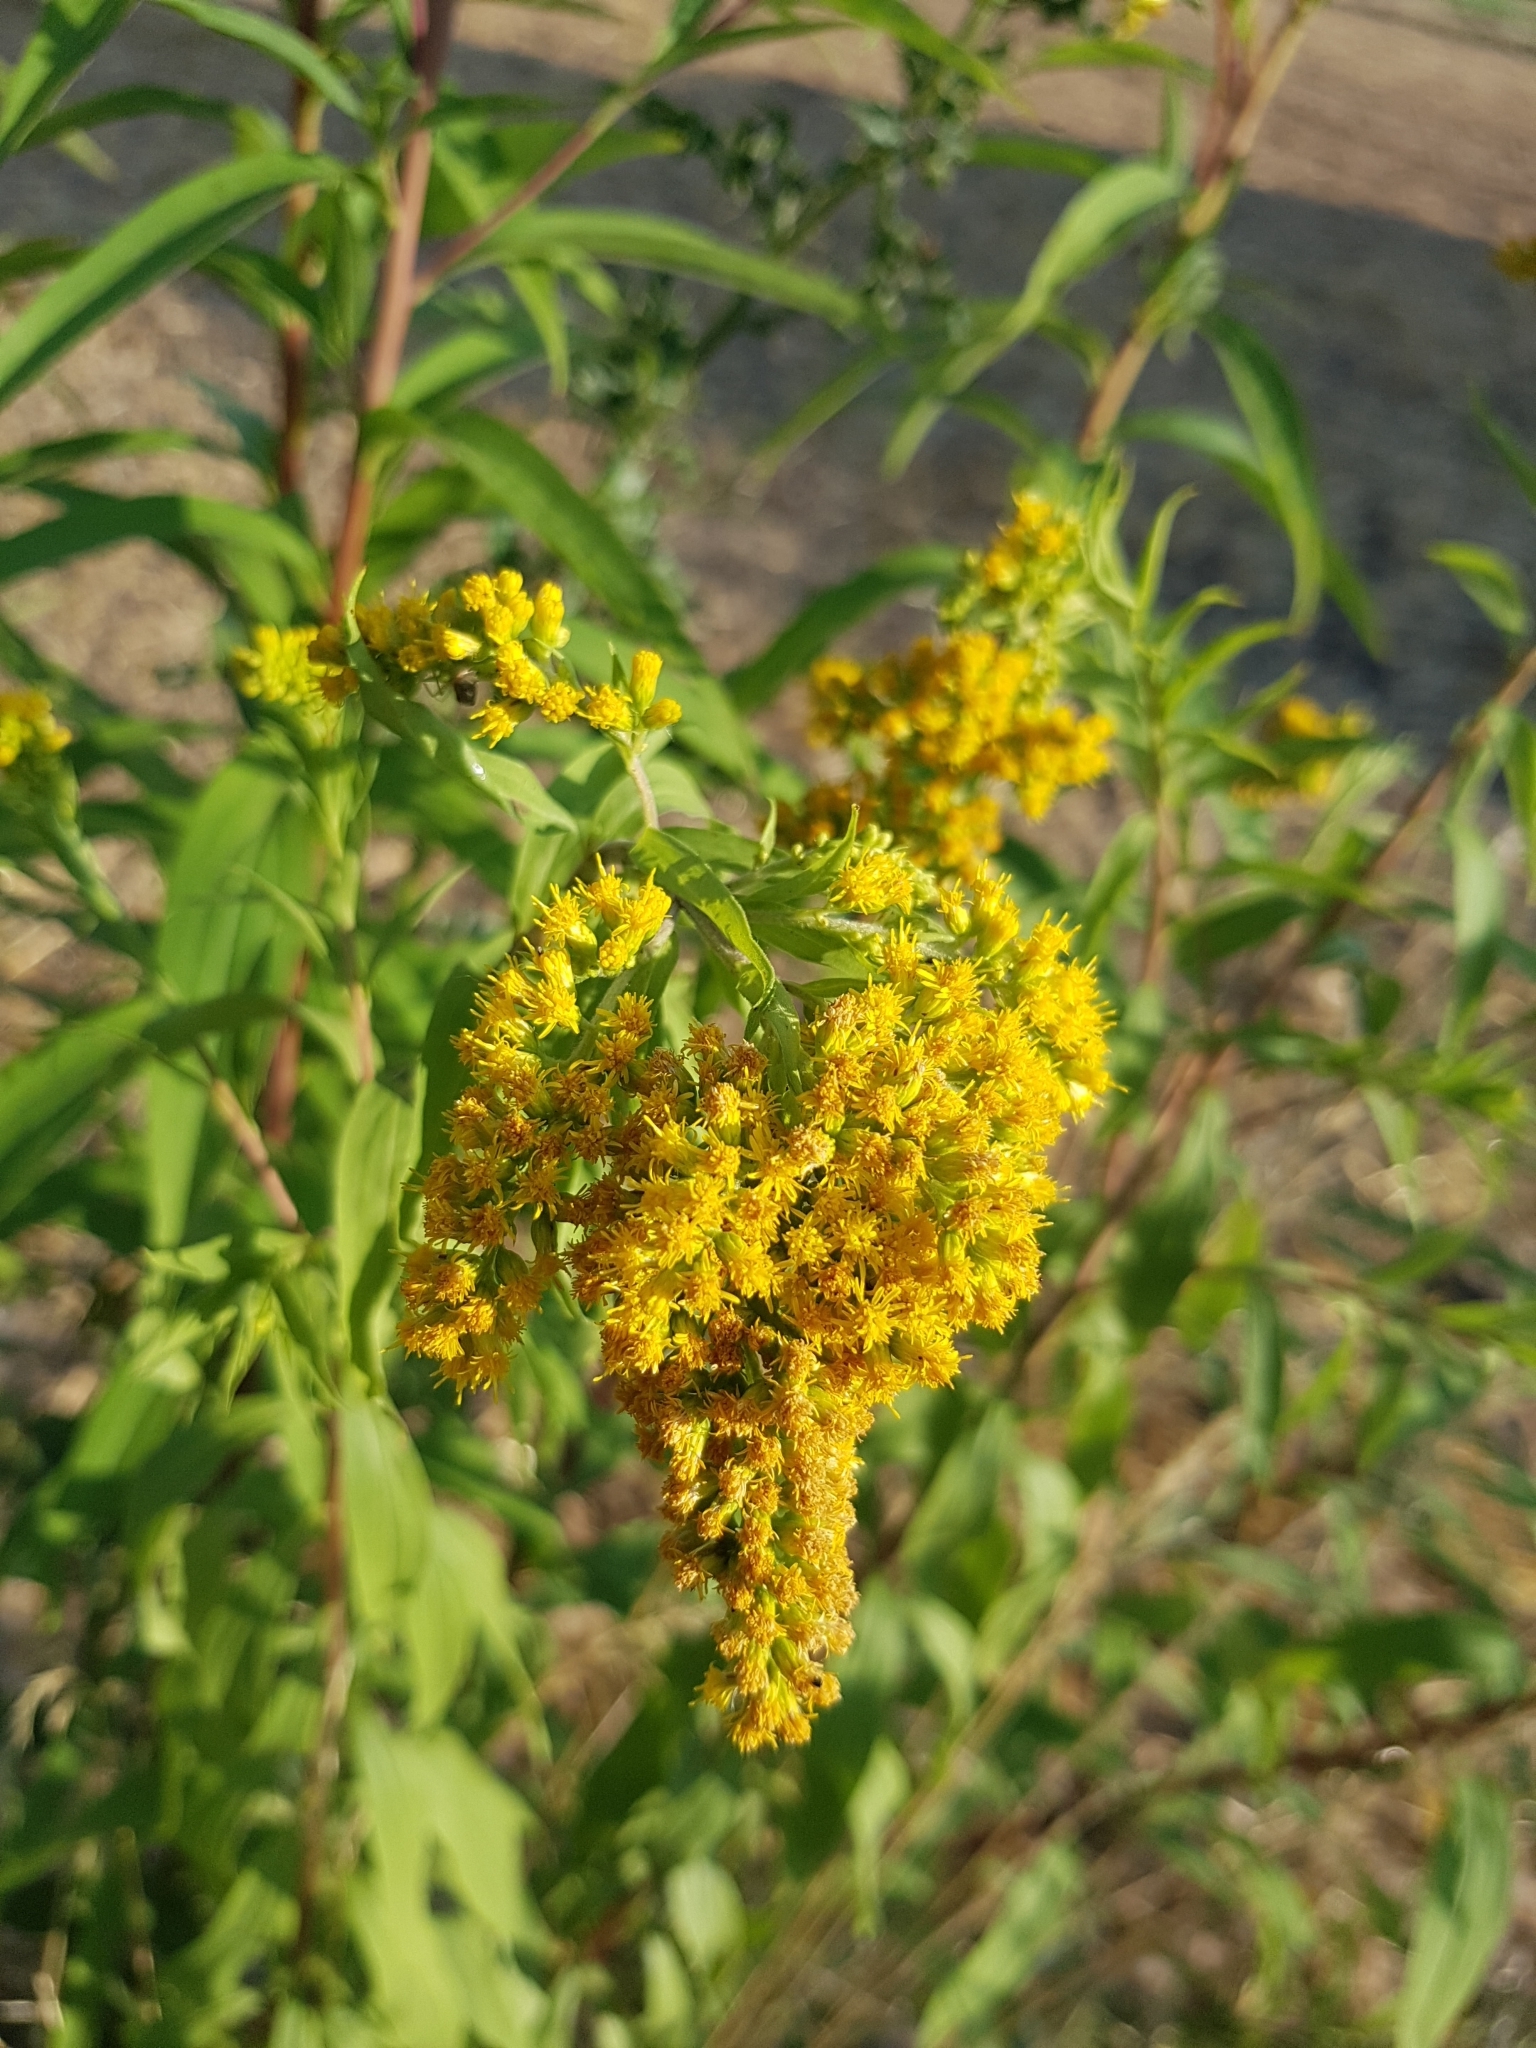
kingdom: Plantae
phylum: Tracheophyta
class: Magnoliopsida
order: Asterales
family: Asteraceae
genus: Solidago
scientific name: Solidago gigantea
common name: Giant goldenrod
